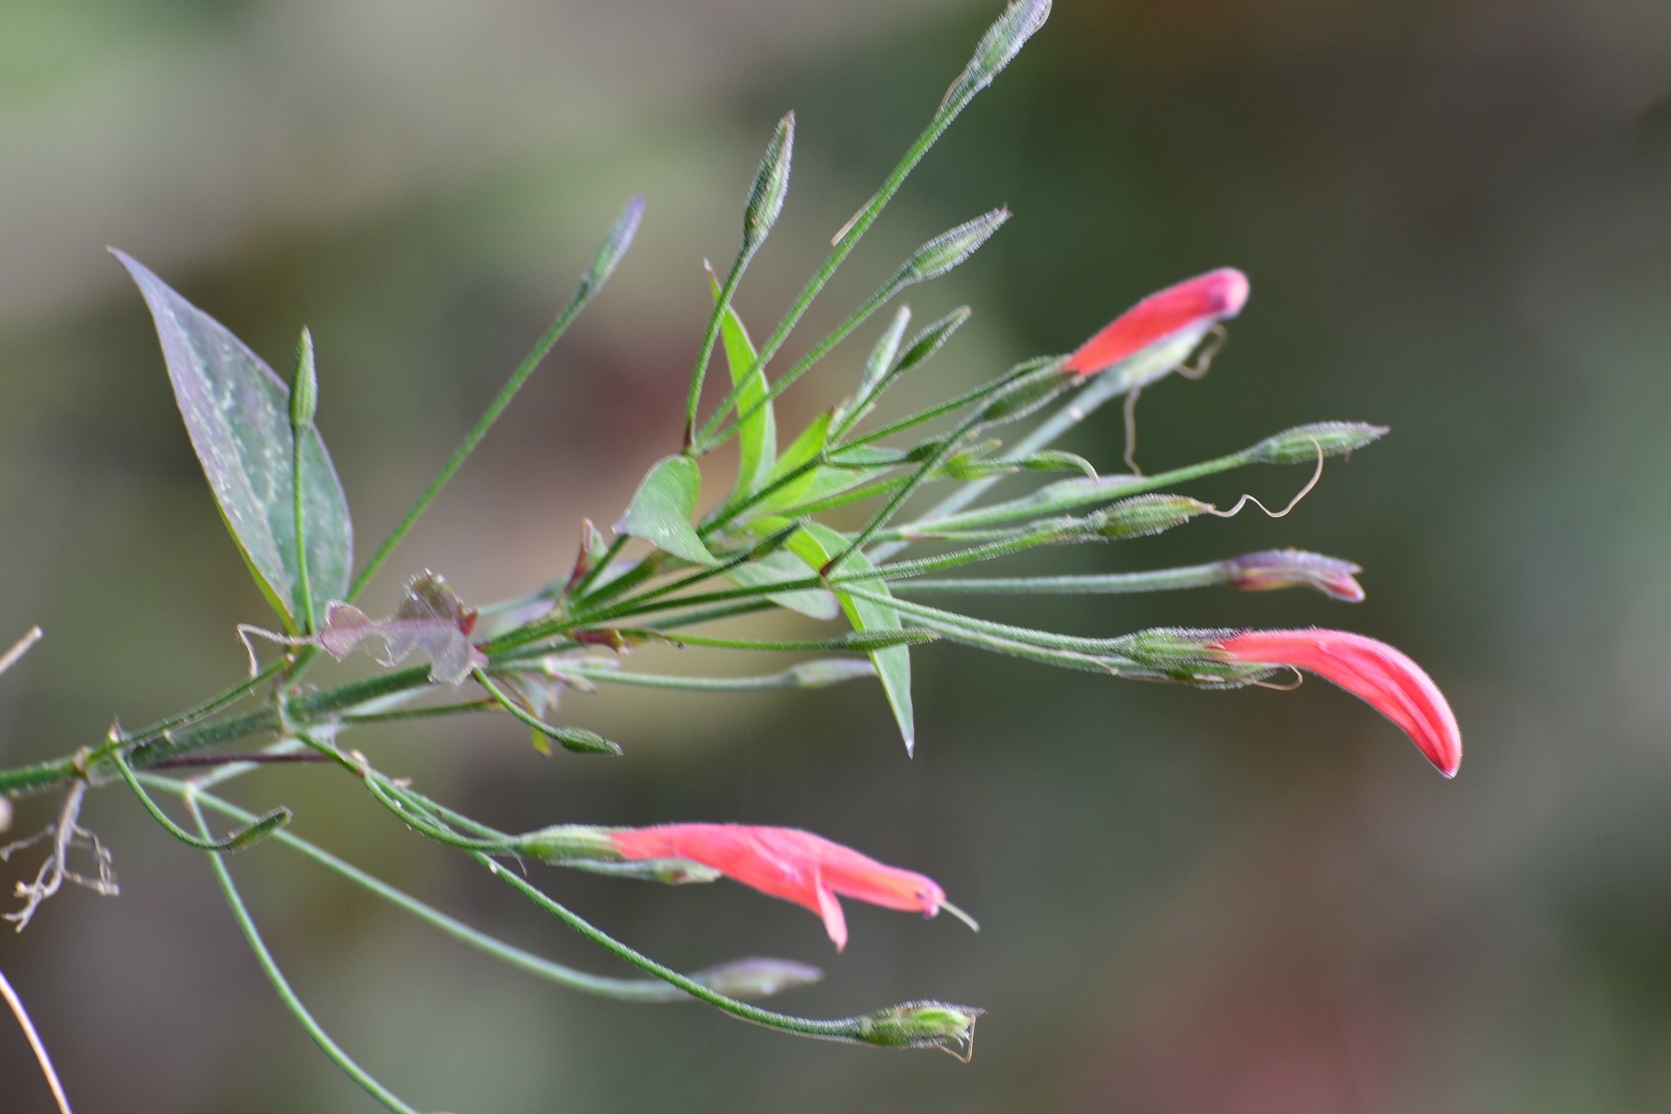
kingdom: Plantae
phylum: Tracheophyta
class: Magnoliopsida
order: Lamiales
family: Acanthaceae
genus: Dicliptera
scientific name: Dicliptera sciadephora
